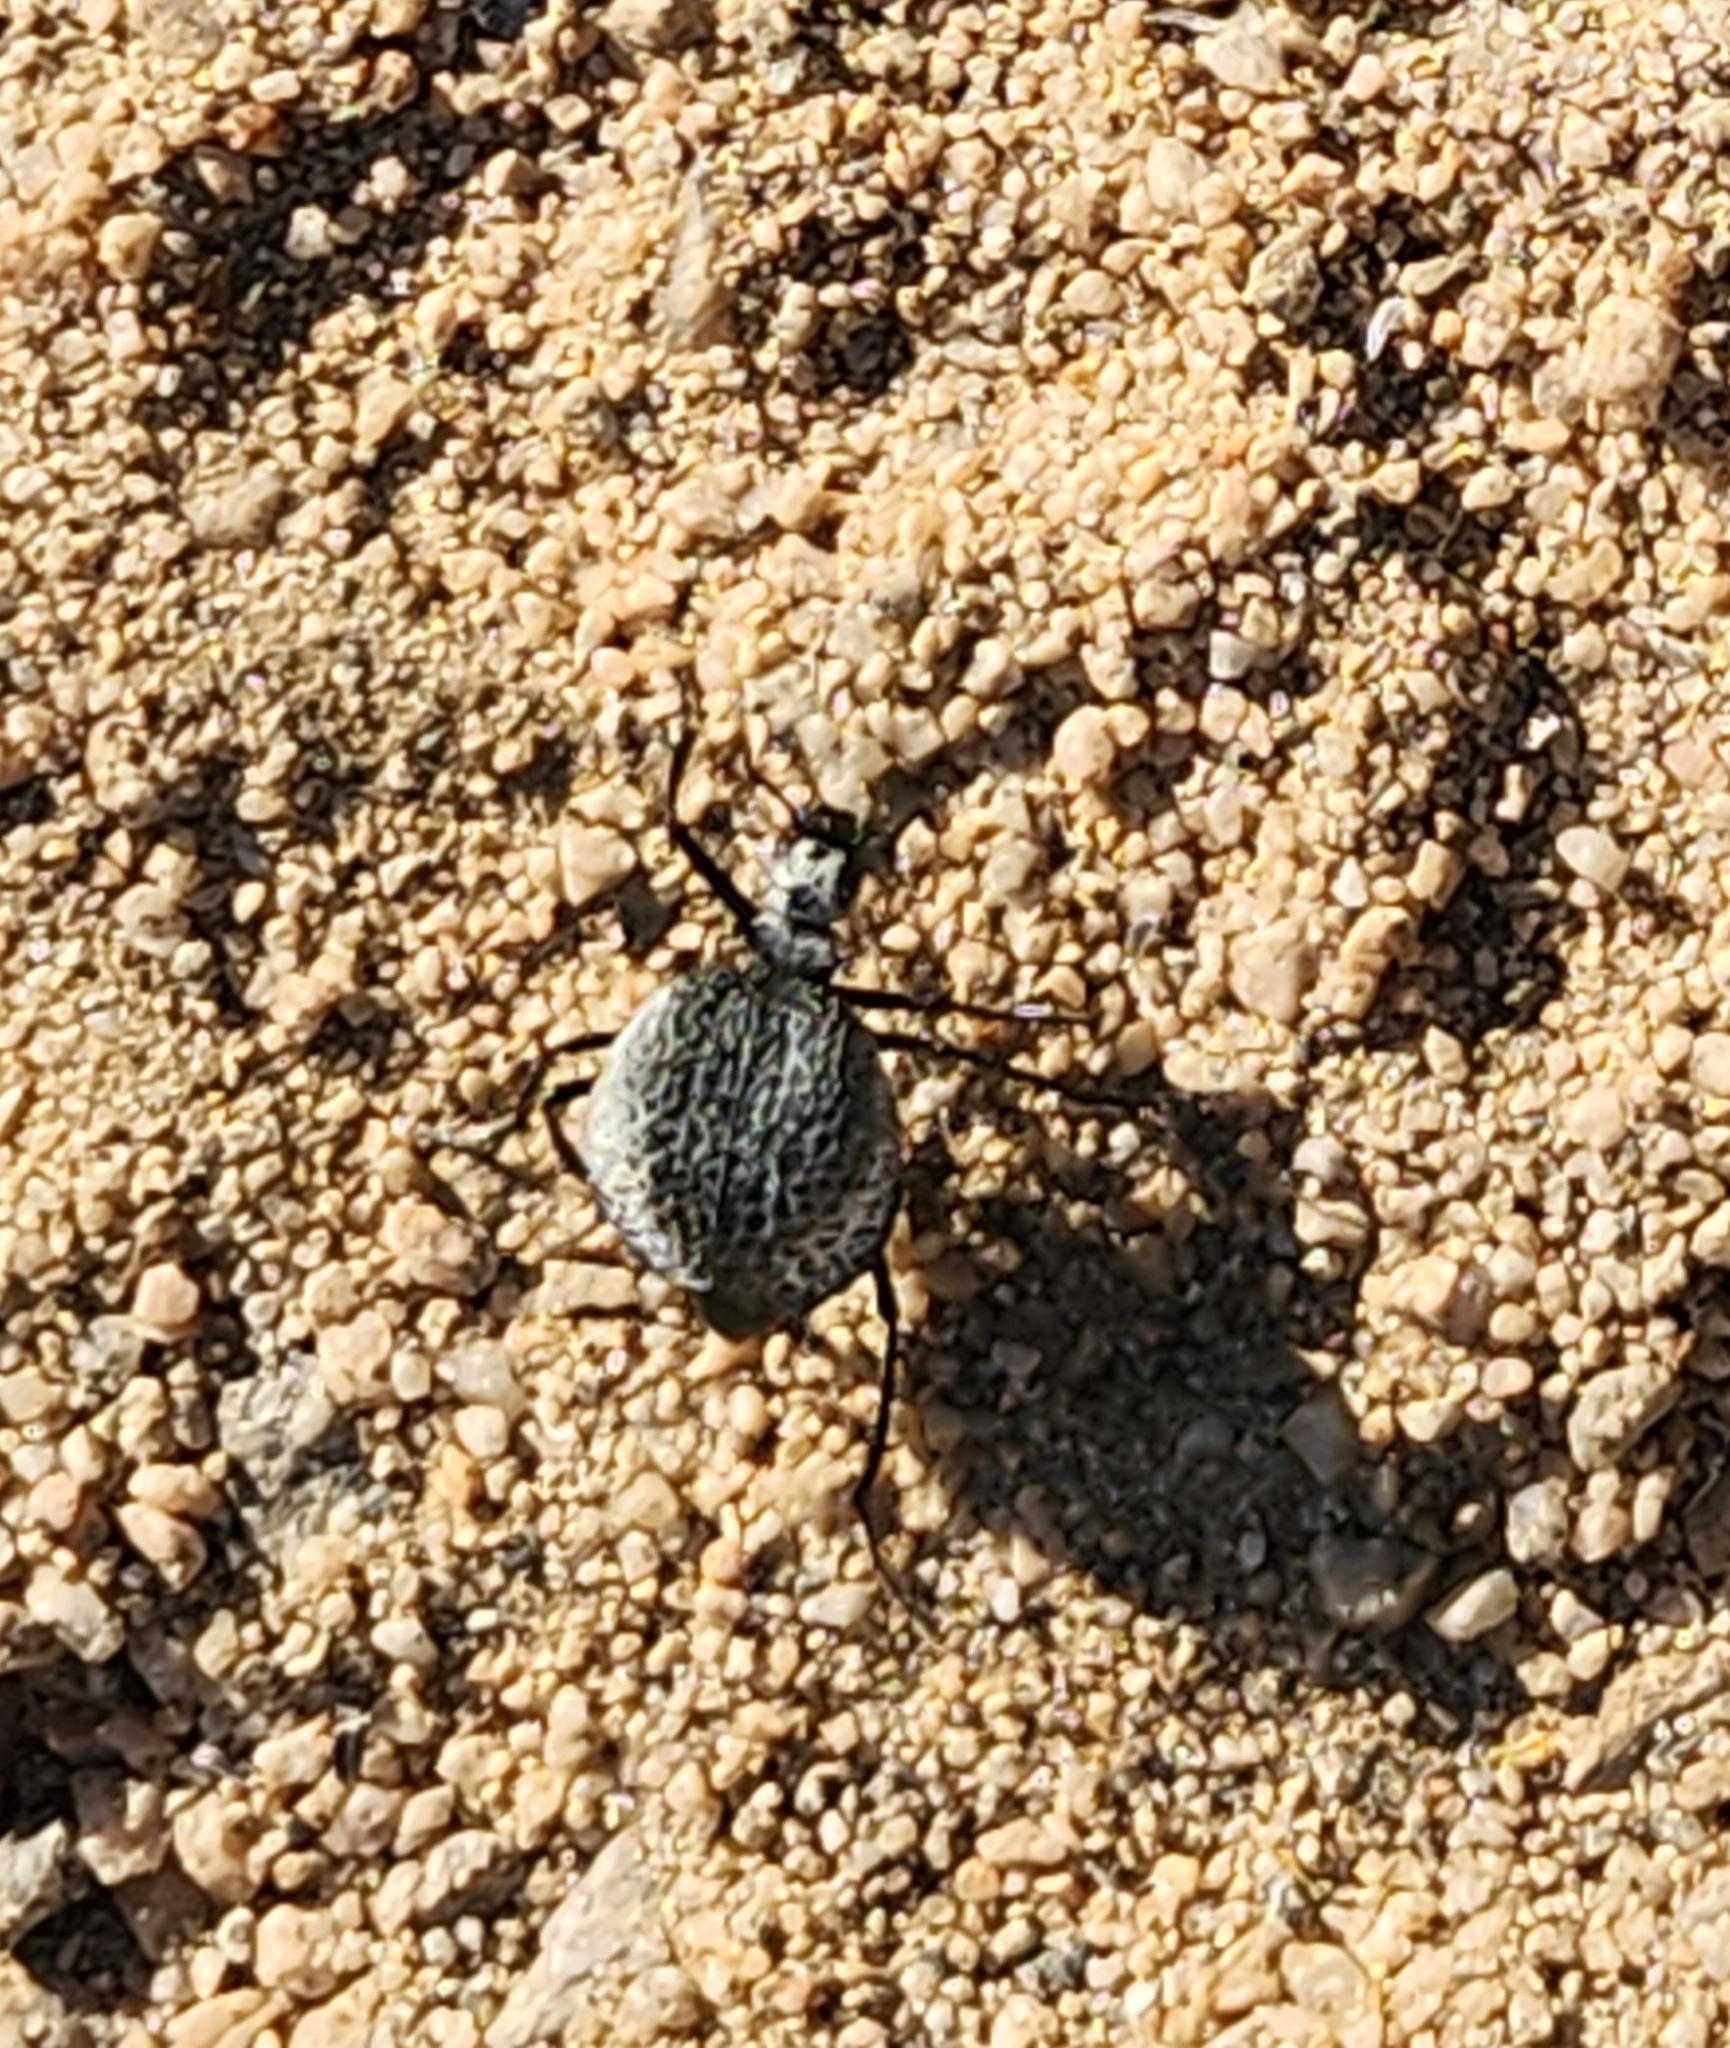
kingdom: Animalia
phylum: Arthropoda
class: Insecta
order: Coleoptera
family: Meloidae
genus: Cysteodemus
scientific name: Cysteodemus armatus
